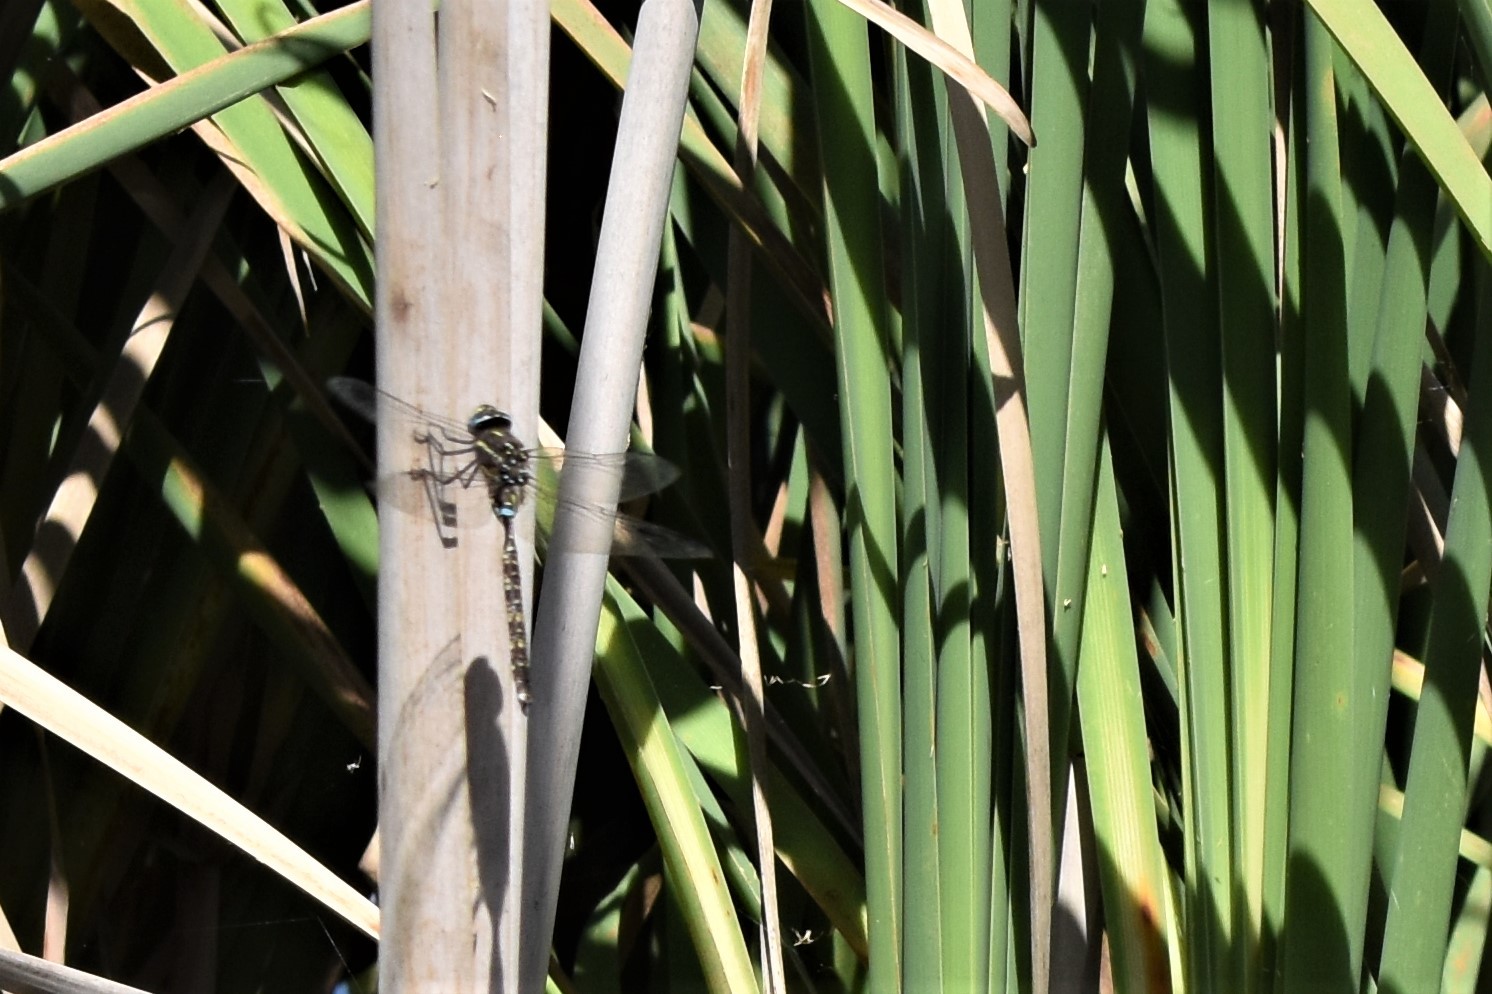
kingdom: Animalia
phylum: Arthropoda
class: Insecta
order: Odonata
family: Aeshnidae
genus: Aeshna
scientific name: Aeshna brevistyla
